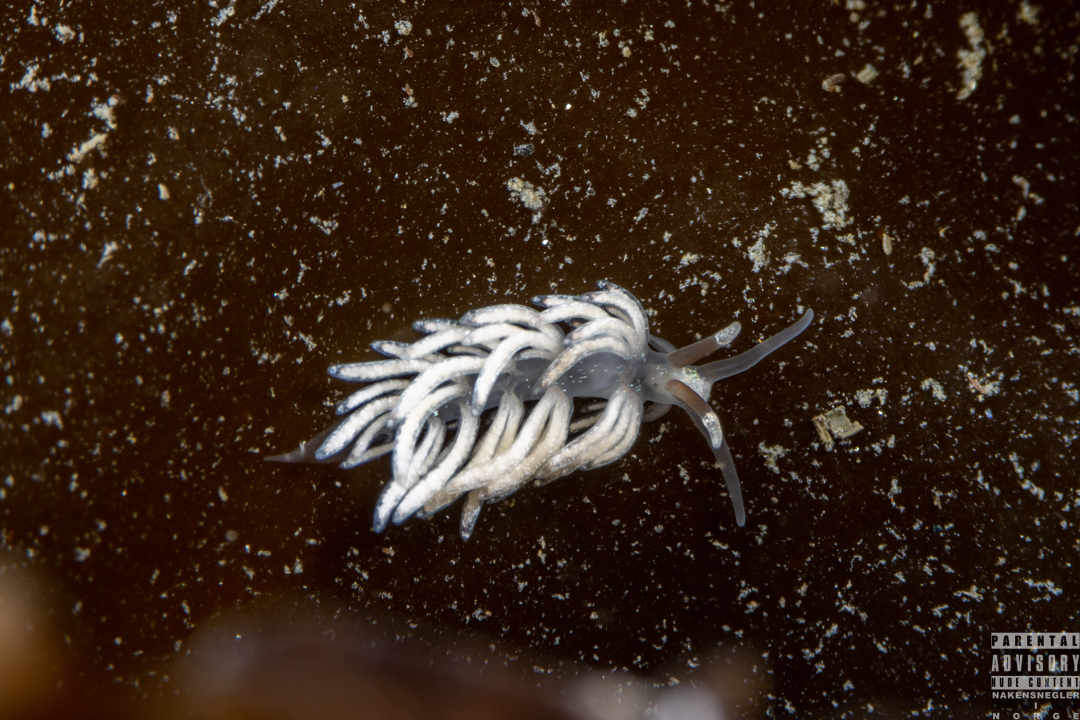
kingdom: Animalia
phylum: Mollusca
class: Gastropoda
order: Nudibranchia
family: Facelinidae
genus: Favorinus
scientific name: Favorinus branchialis
